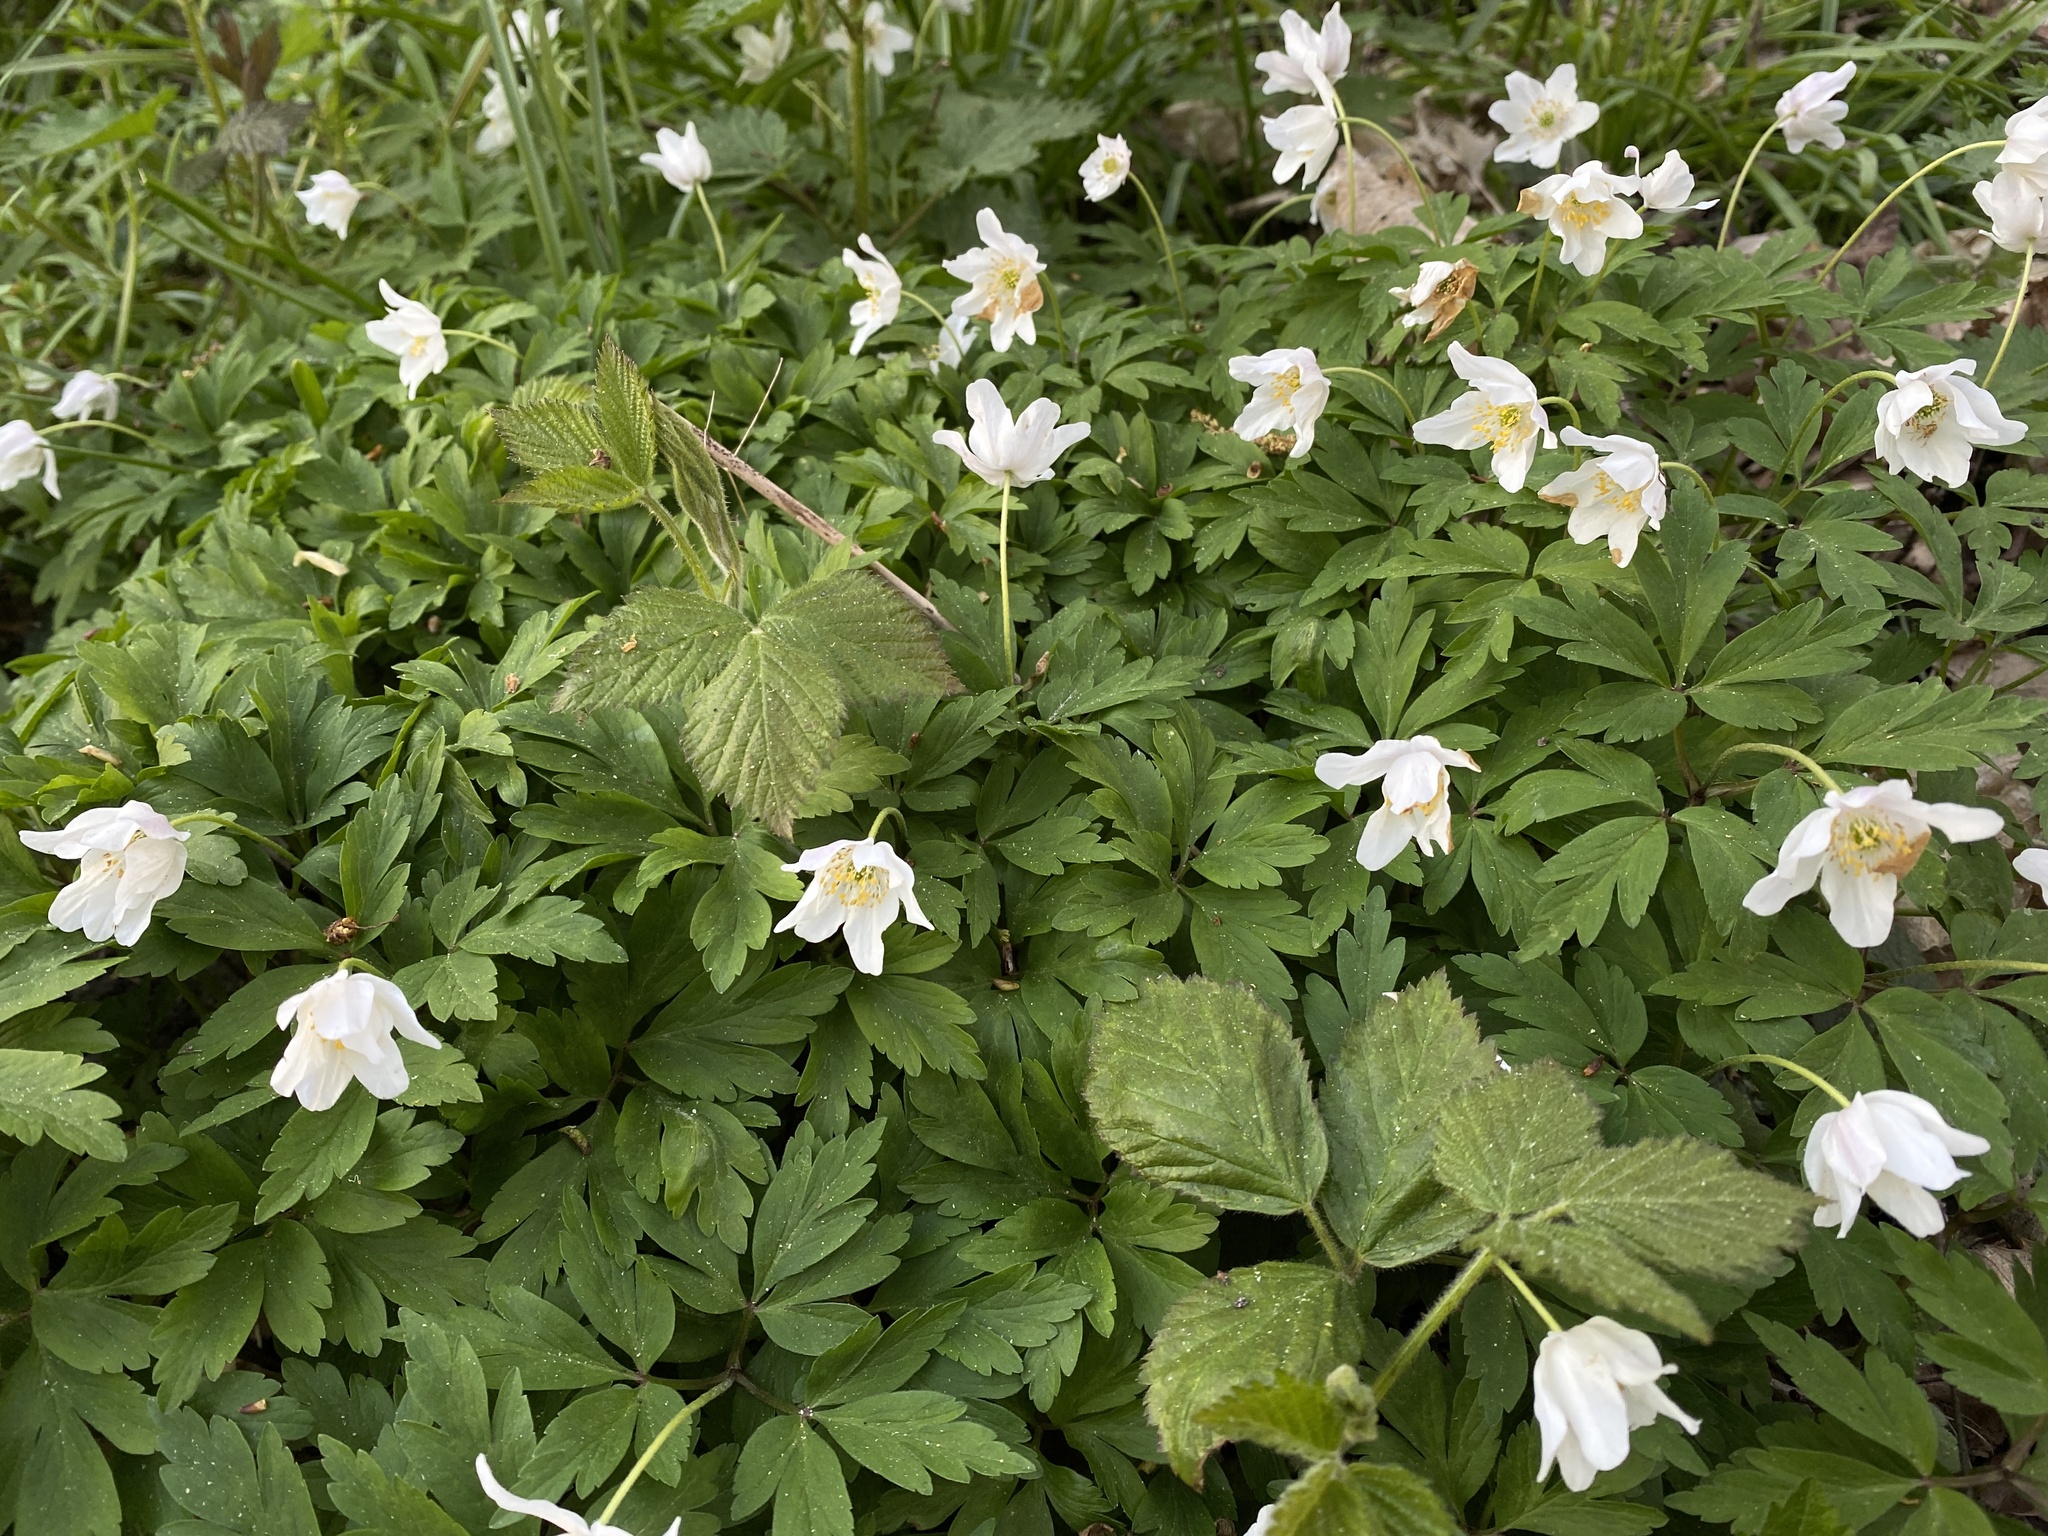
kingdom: Plantae
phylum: Tracheophyta
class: Magnoliopsida
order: Ranunculales
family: Ranunculaceae
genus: Anemone
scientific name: Anemone nemorosa
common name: Wood anemone
